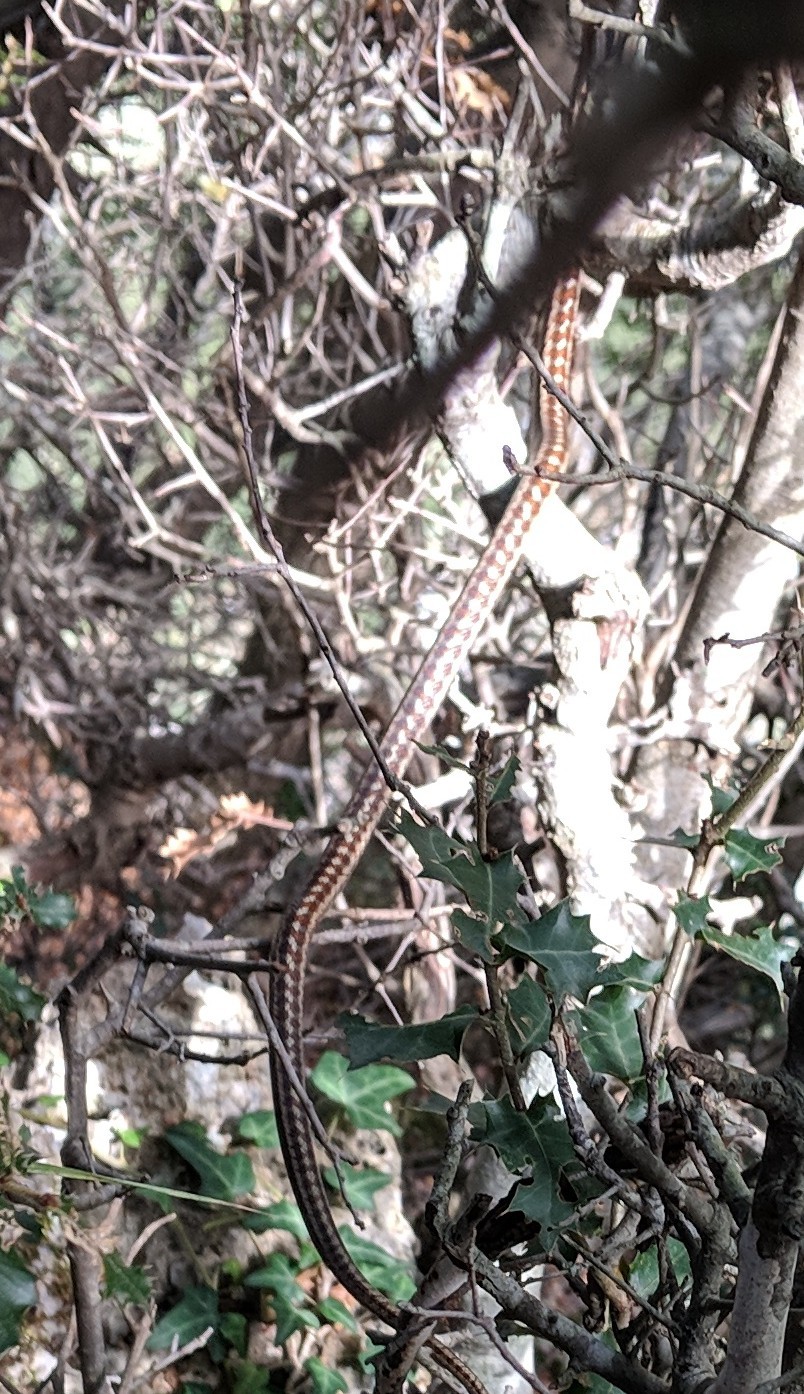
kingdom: Animalia
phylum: Chordata
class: Squamata
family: Colubridae
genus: Zamenis
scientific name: Zamenis situla
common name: European ratsnake
